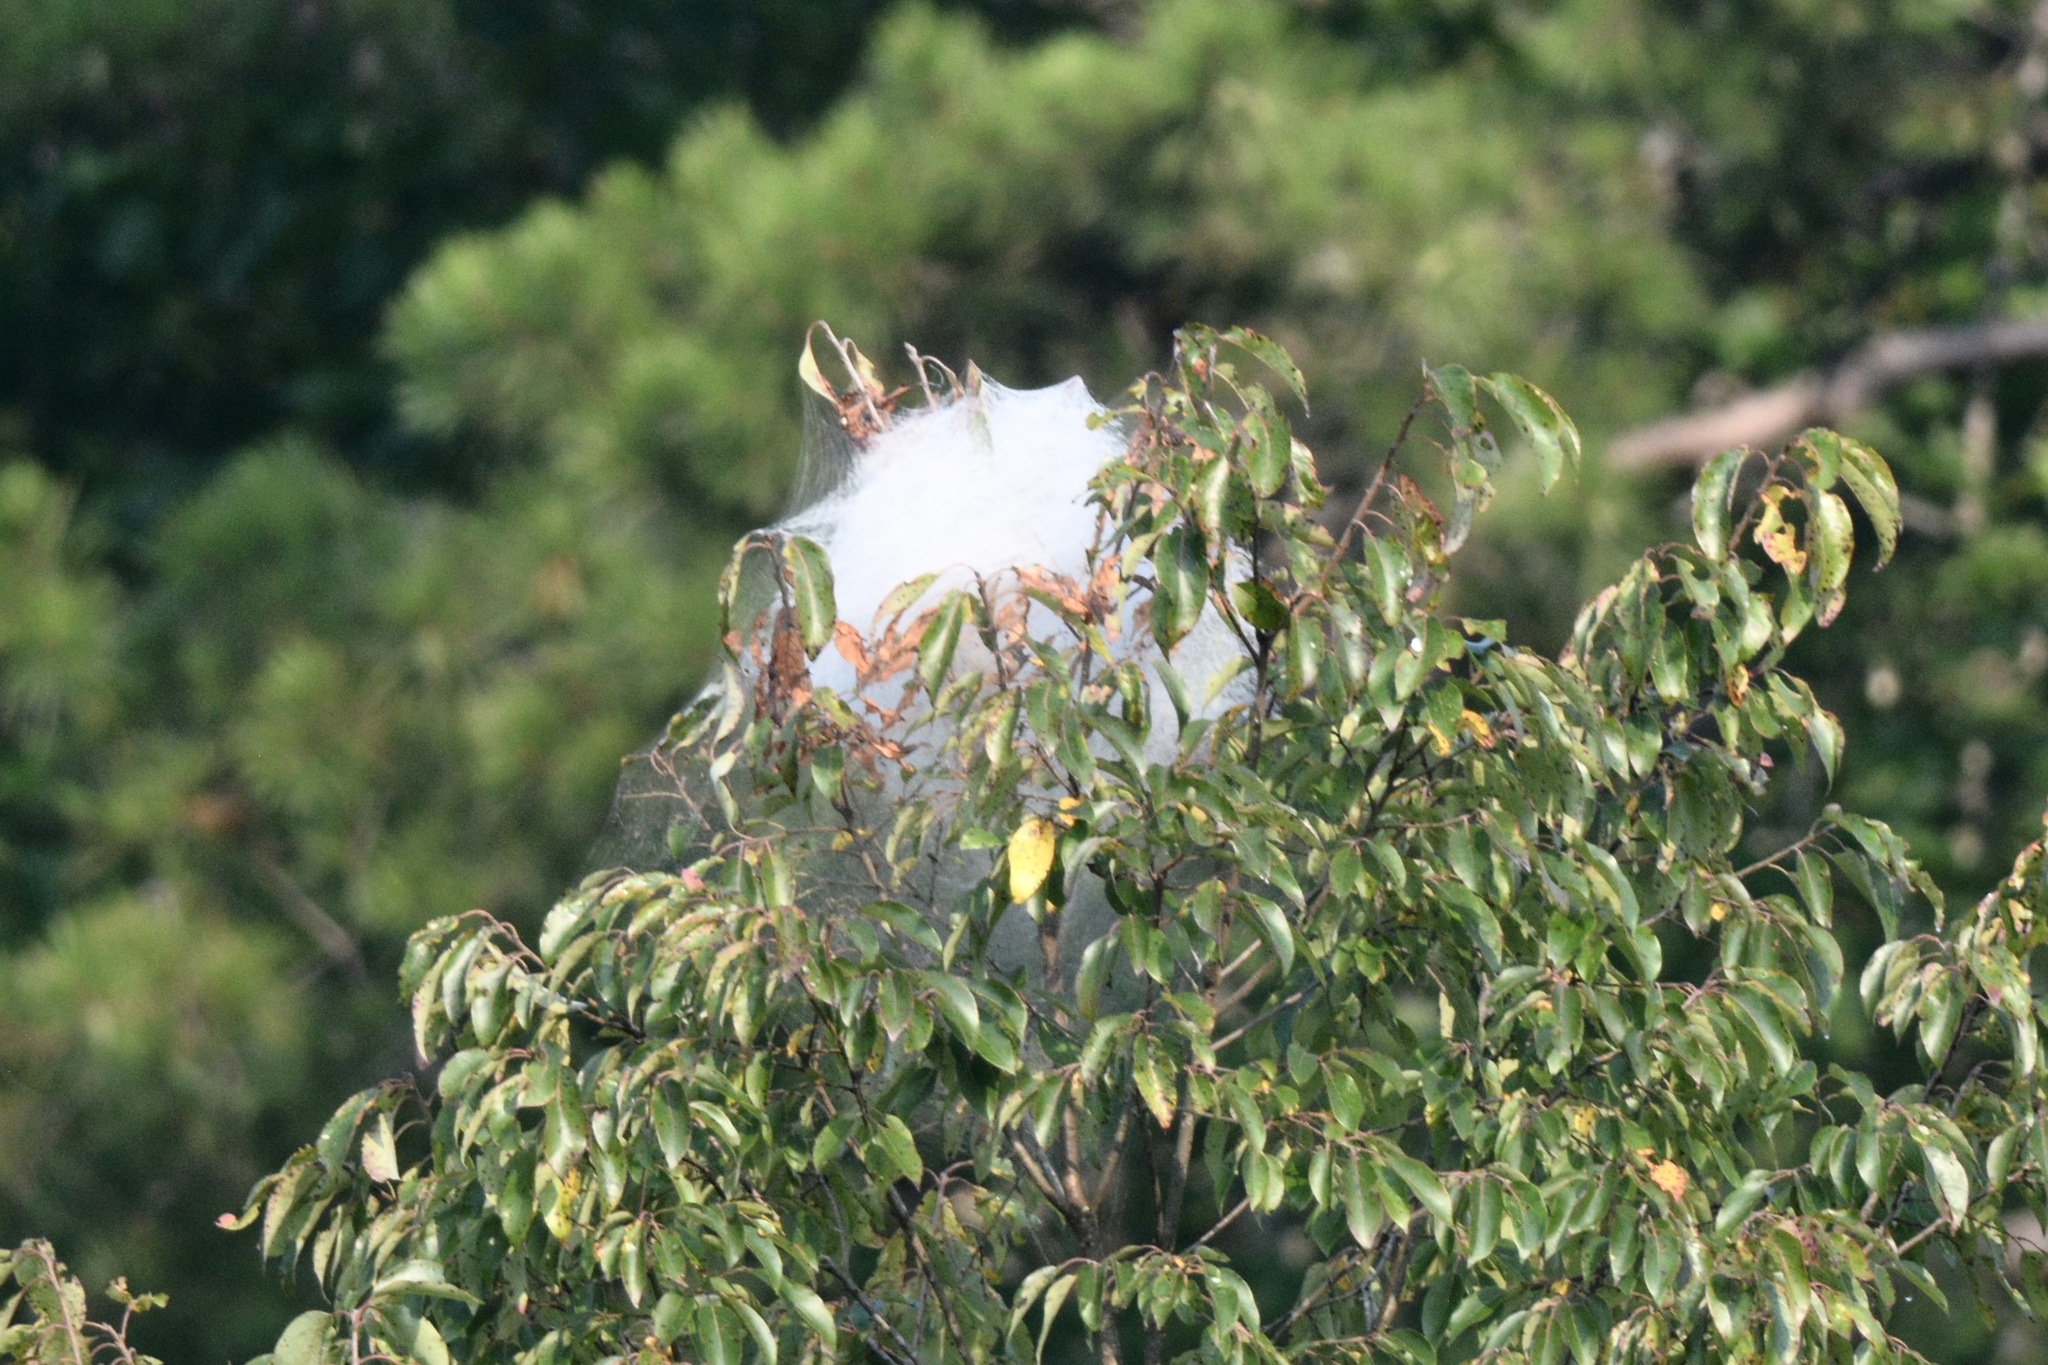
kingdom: Plantae
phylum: Tracheophyta
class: Magnoliopsida
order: Ericales
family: Ebenaceae
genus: Diospyros
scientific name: Diospyros virginiana
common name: Persimmon
